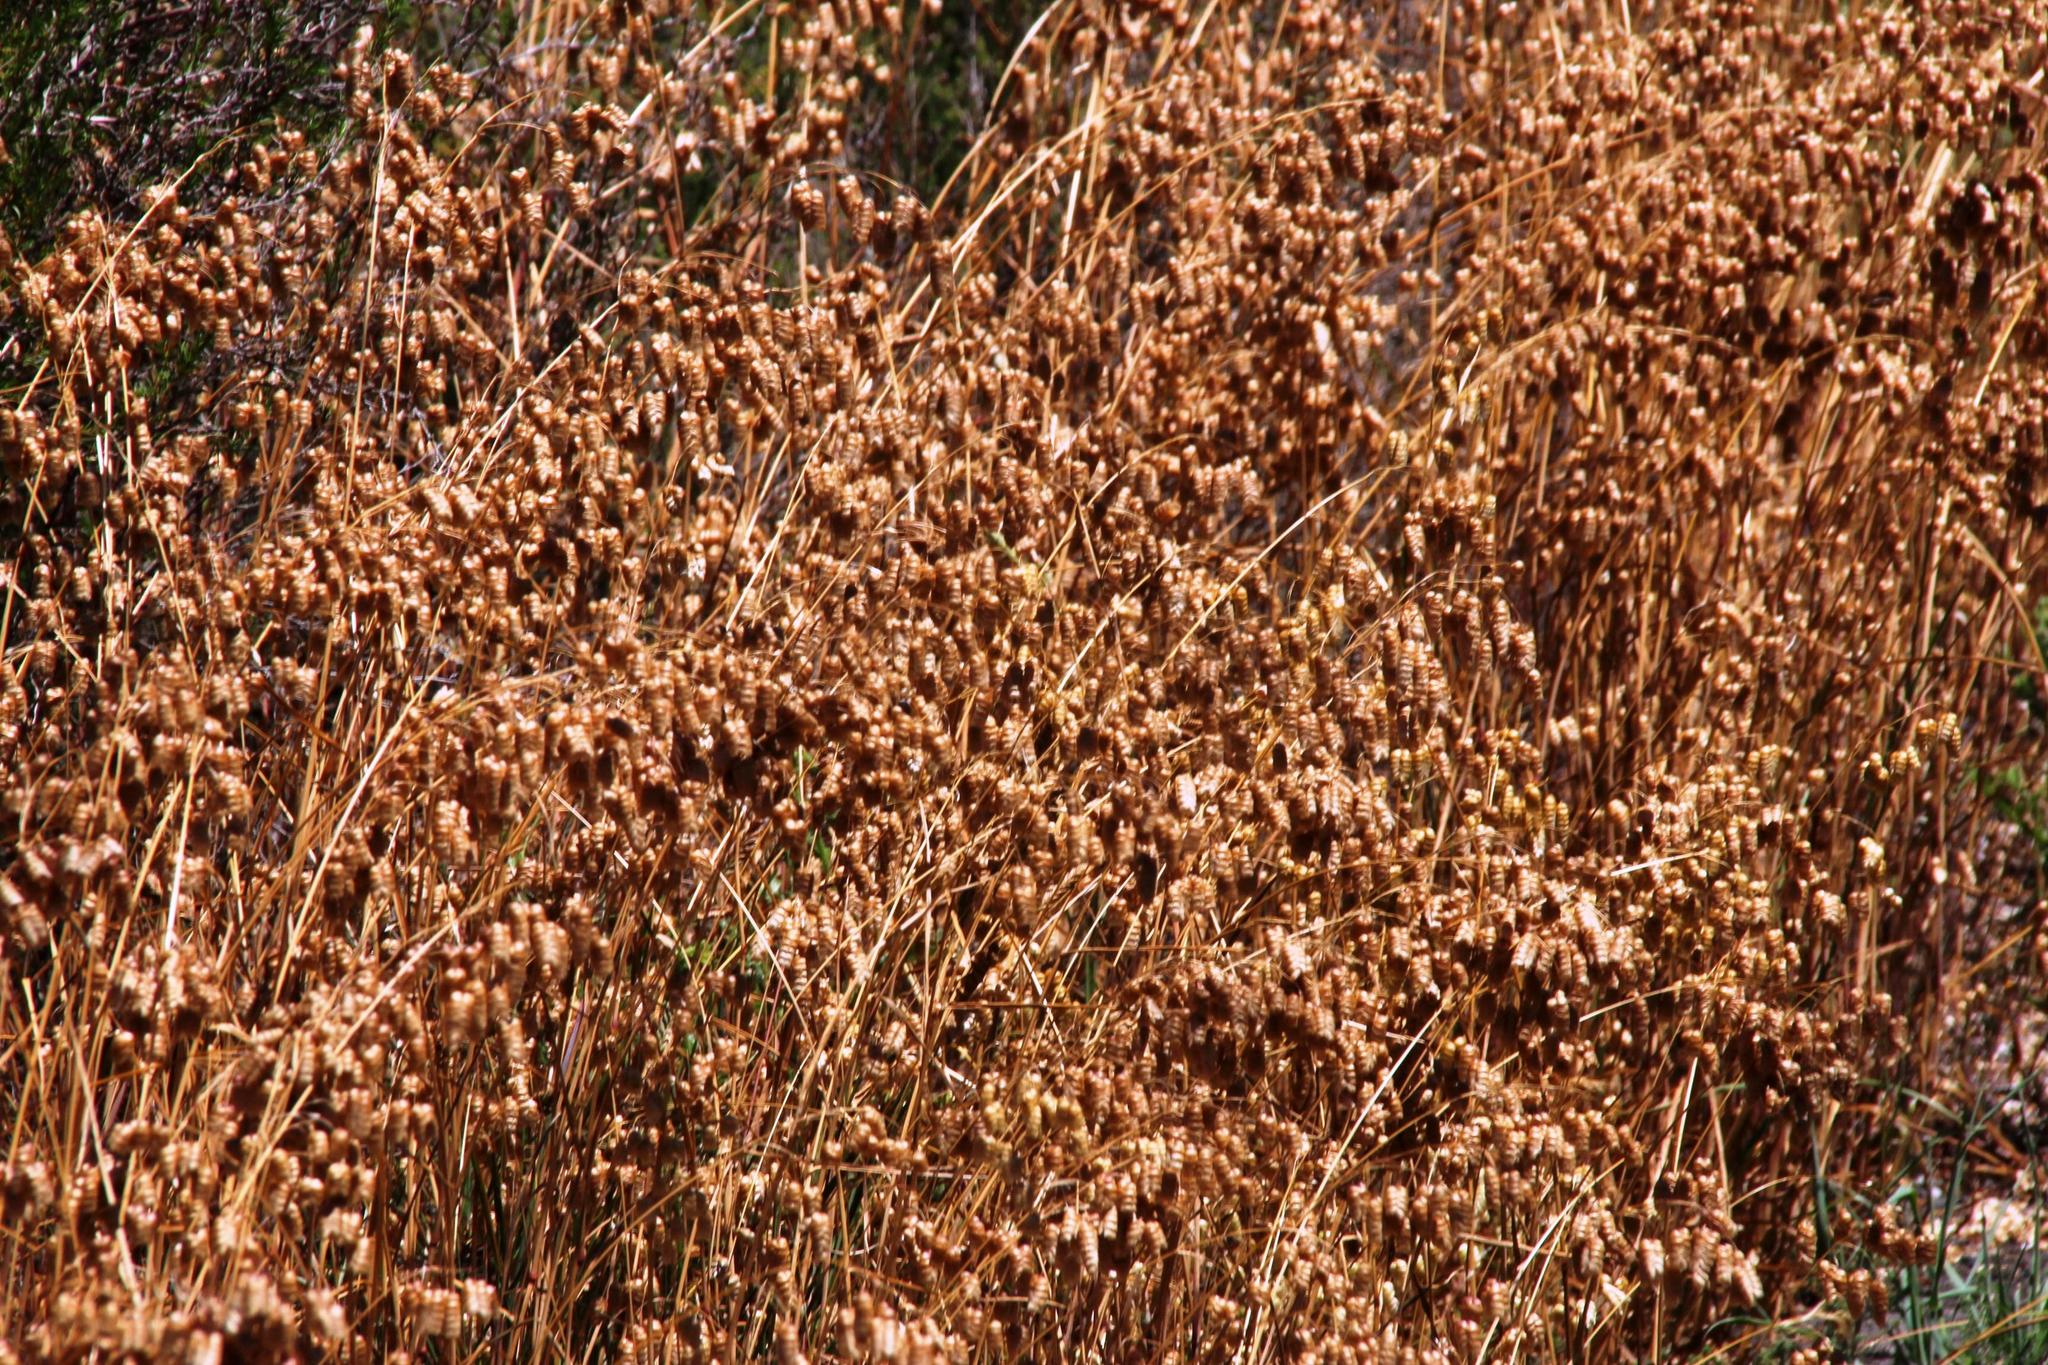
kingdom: Plantae
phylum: Tracheophyta
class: Liliopsida
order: Poales
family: Poaceae
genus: Briza
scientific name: Briza maxima
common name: Big quakinggrass
